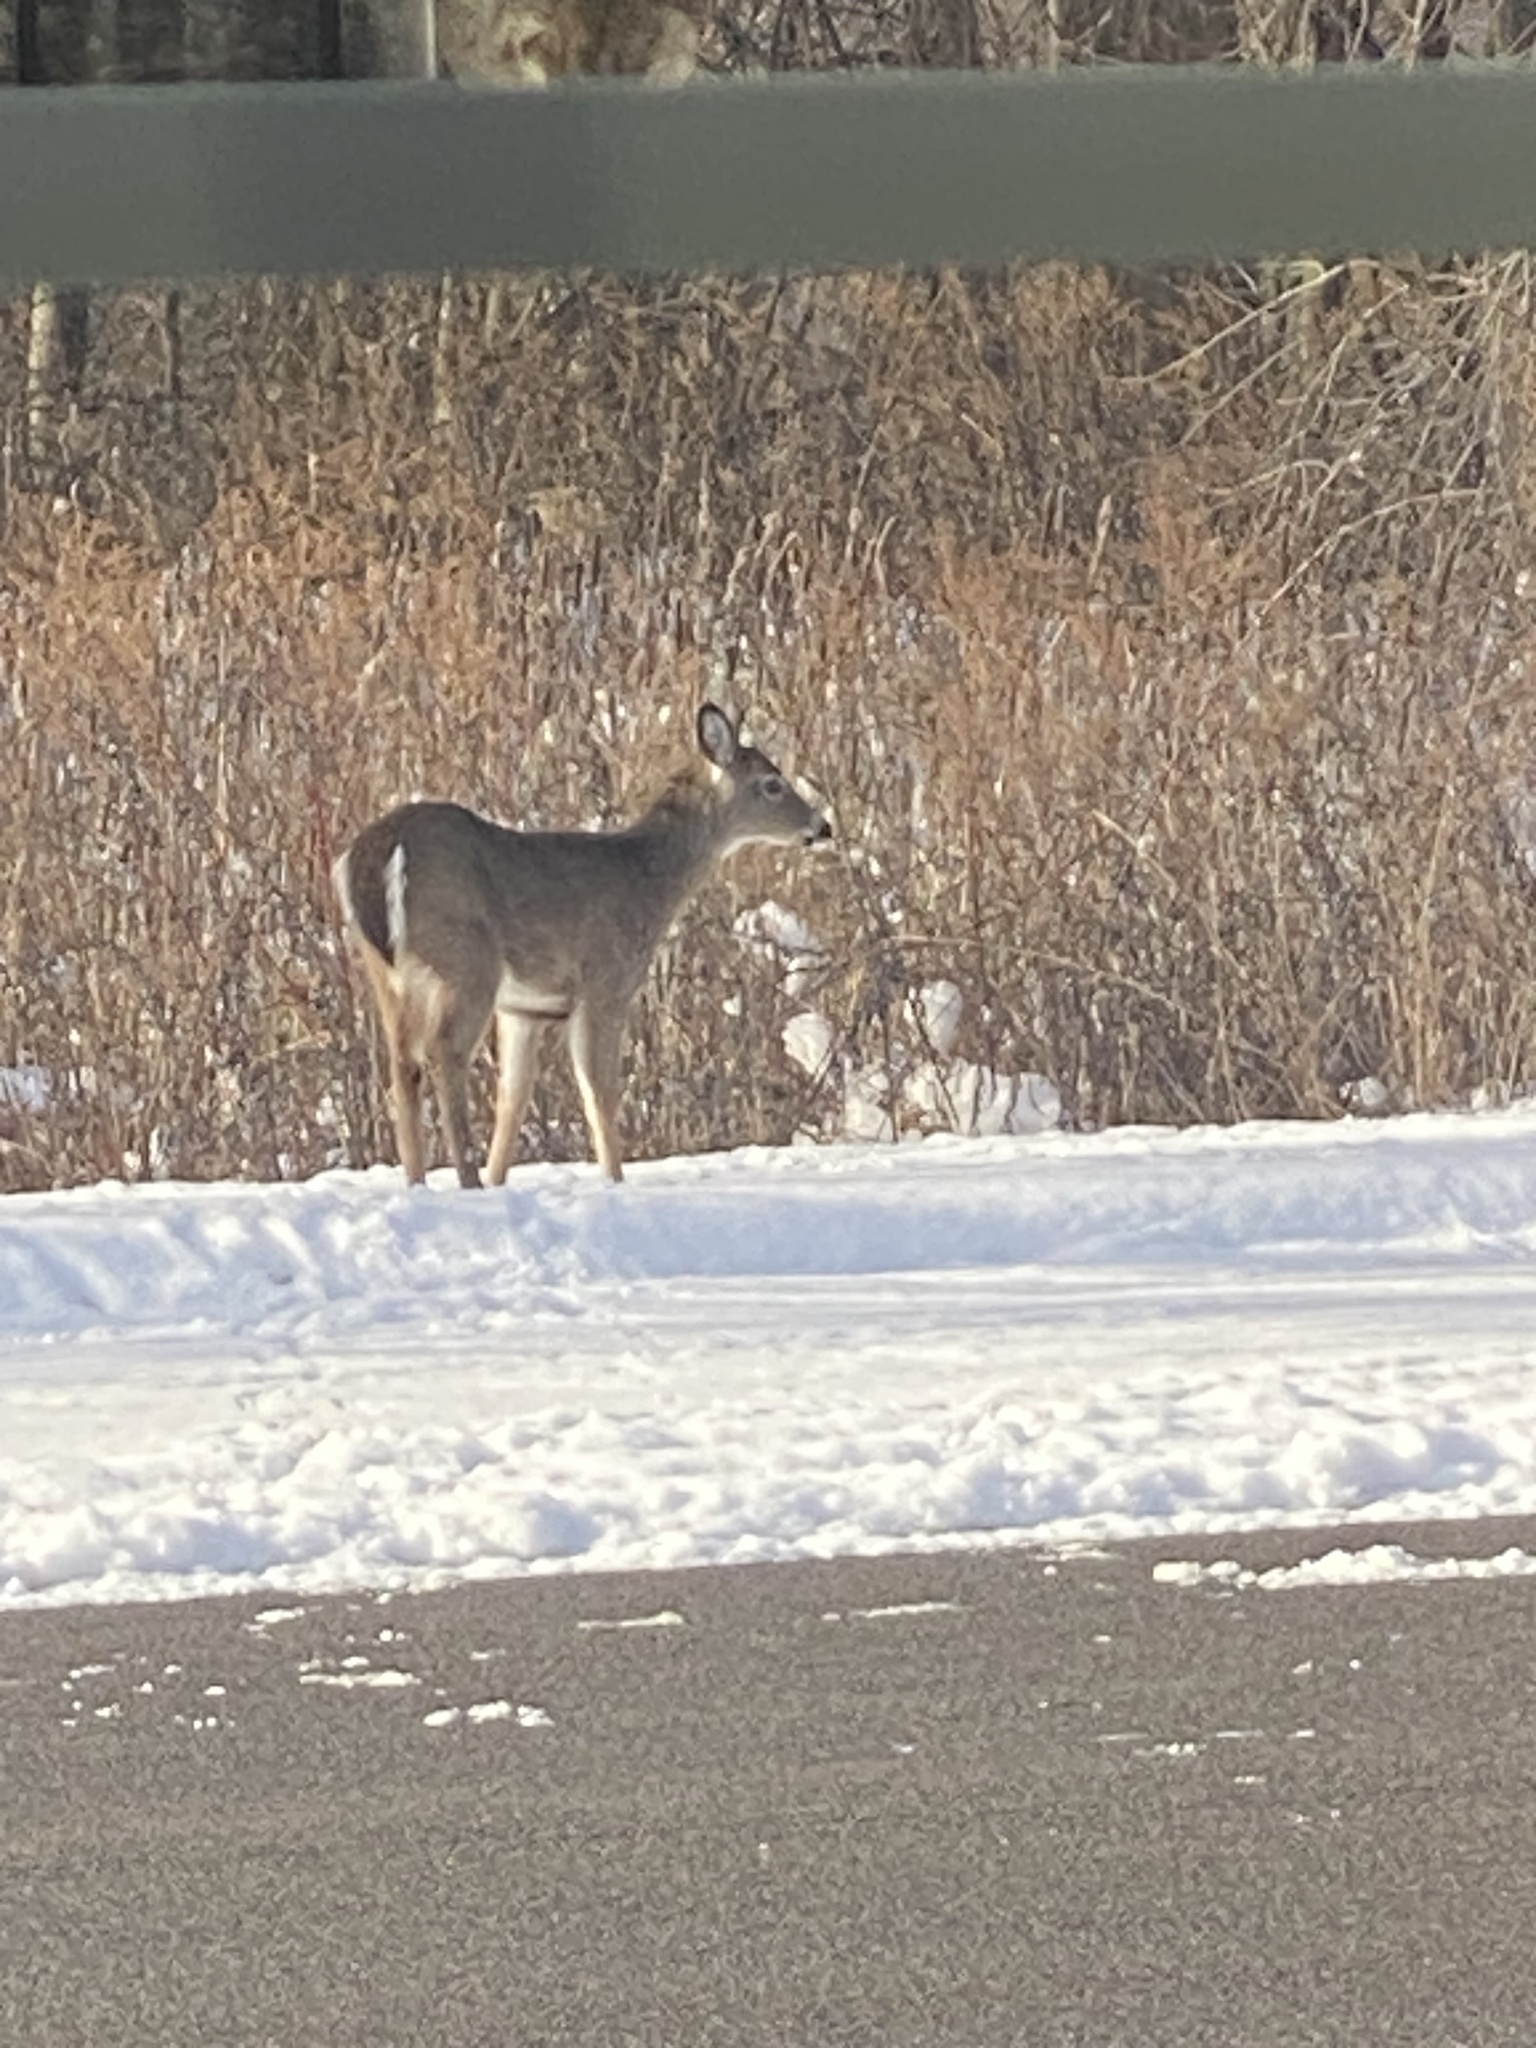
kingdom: Animalia
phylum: Chordata
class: Mammalia
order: Artiodactyla
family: Cervidae
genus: Odocoileus
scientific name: Odocoileus virginianus
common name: White-tailed deer
